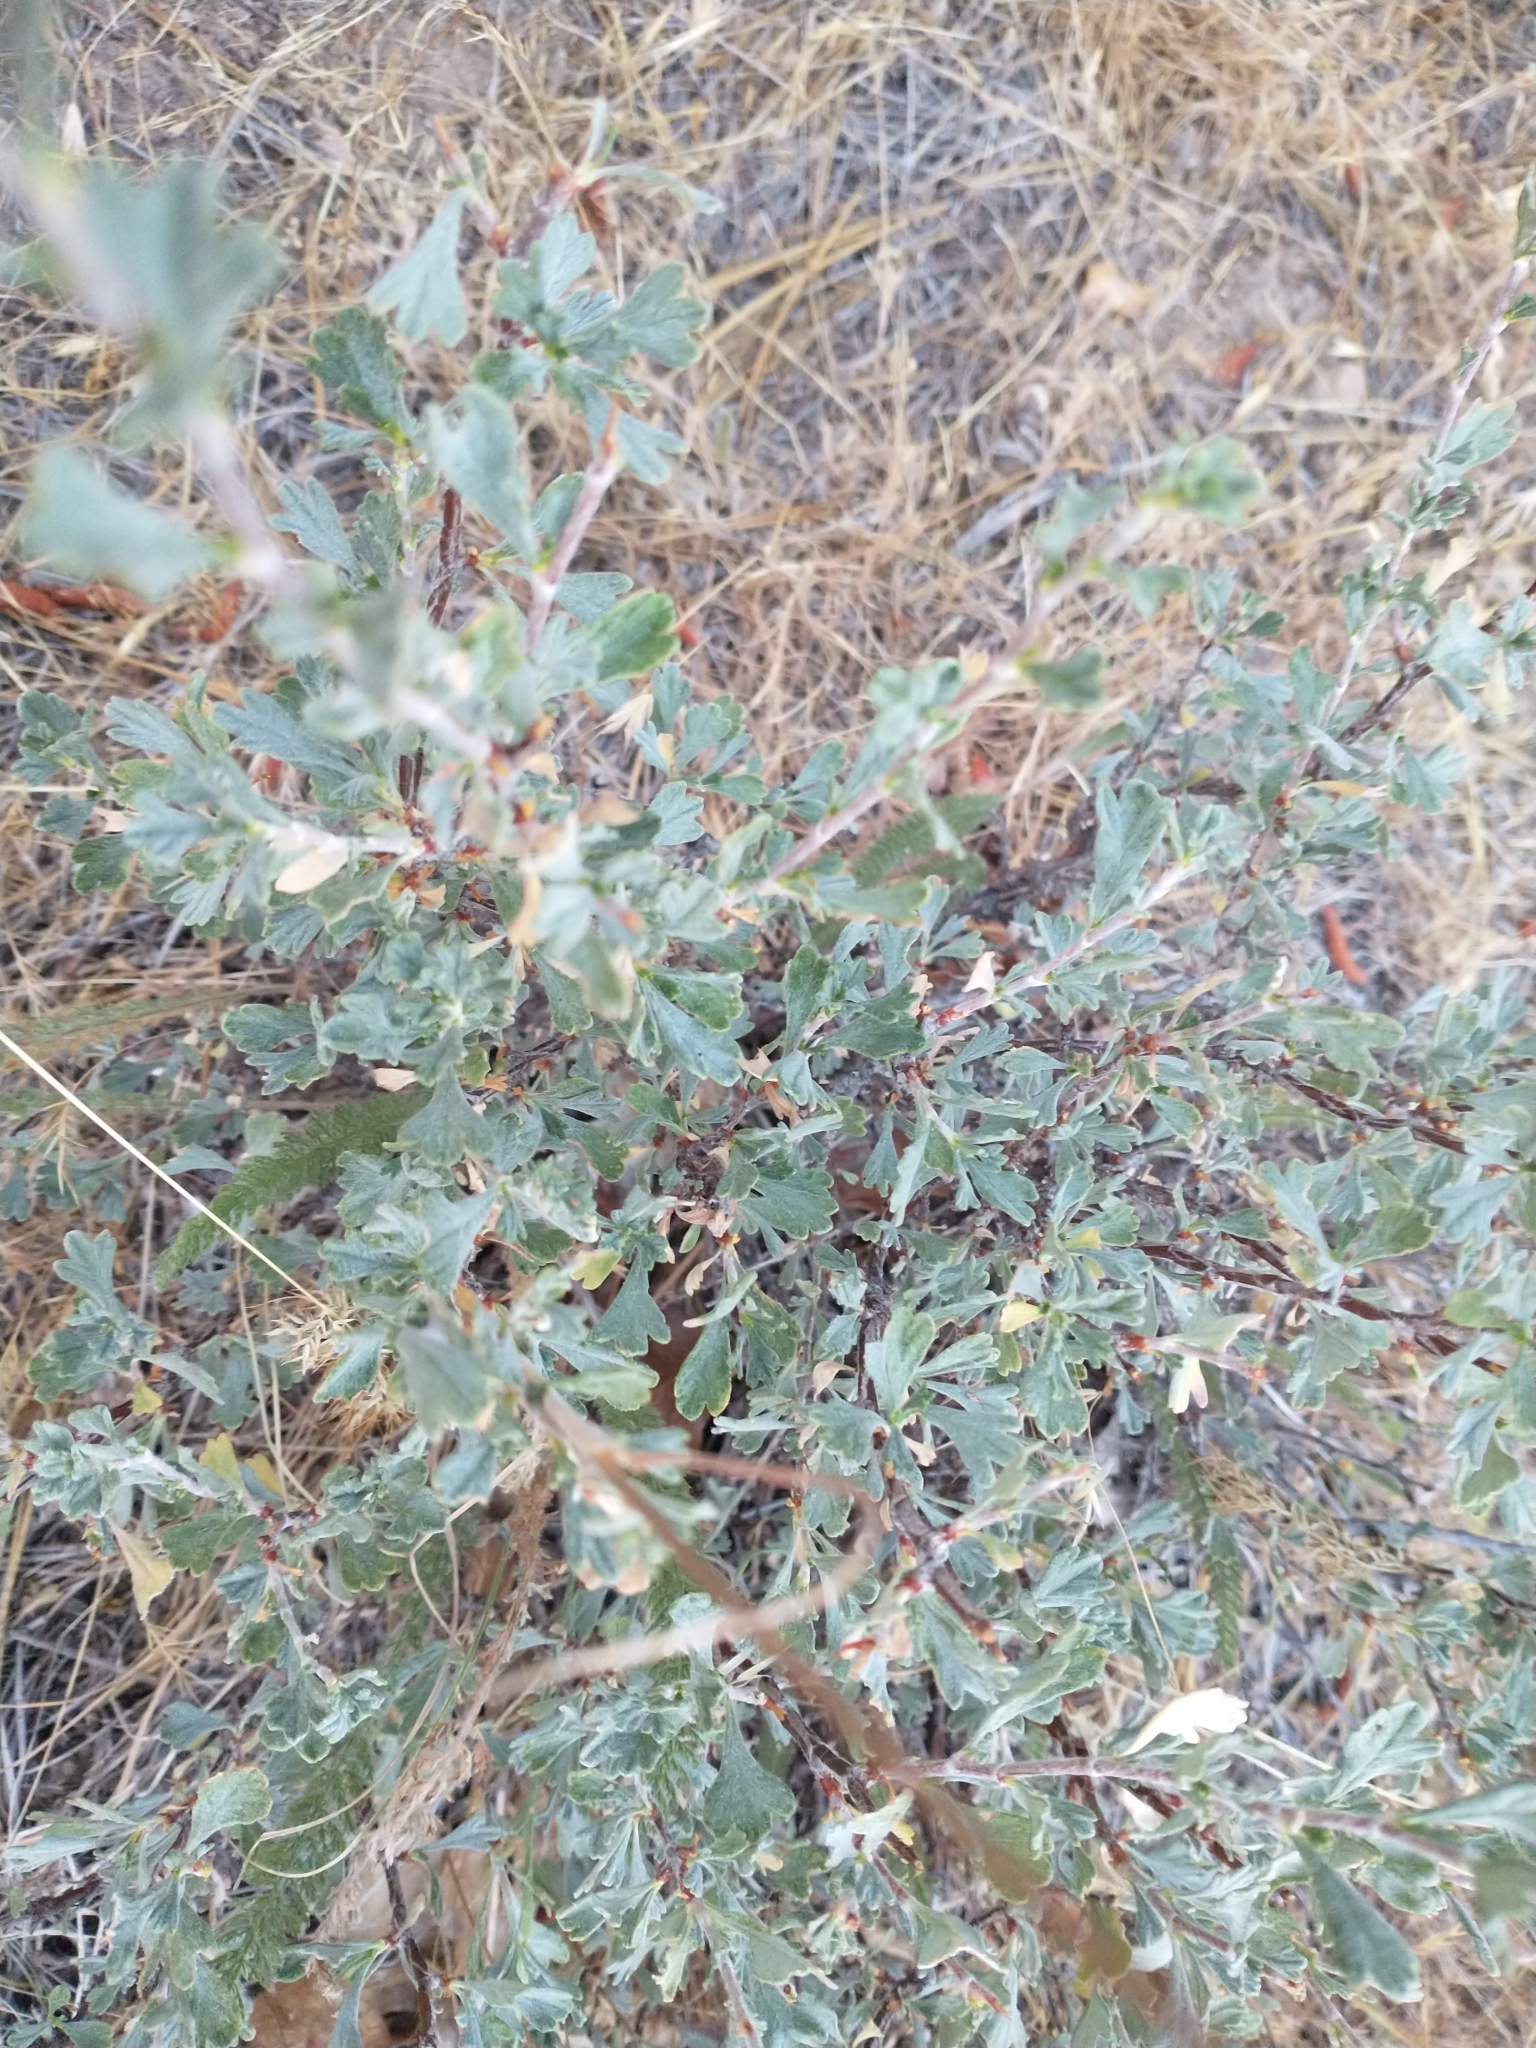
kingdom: Plantae
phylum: Tracheophyta
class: Magnoliopsida
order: Rosales
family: Rosaceae
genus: Purshia
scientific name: Purshia tridentata
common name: Antelope bitterbrush
